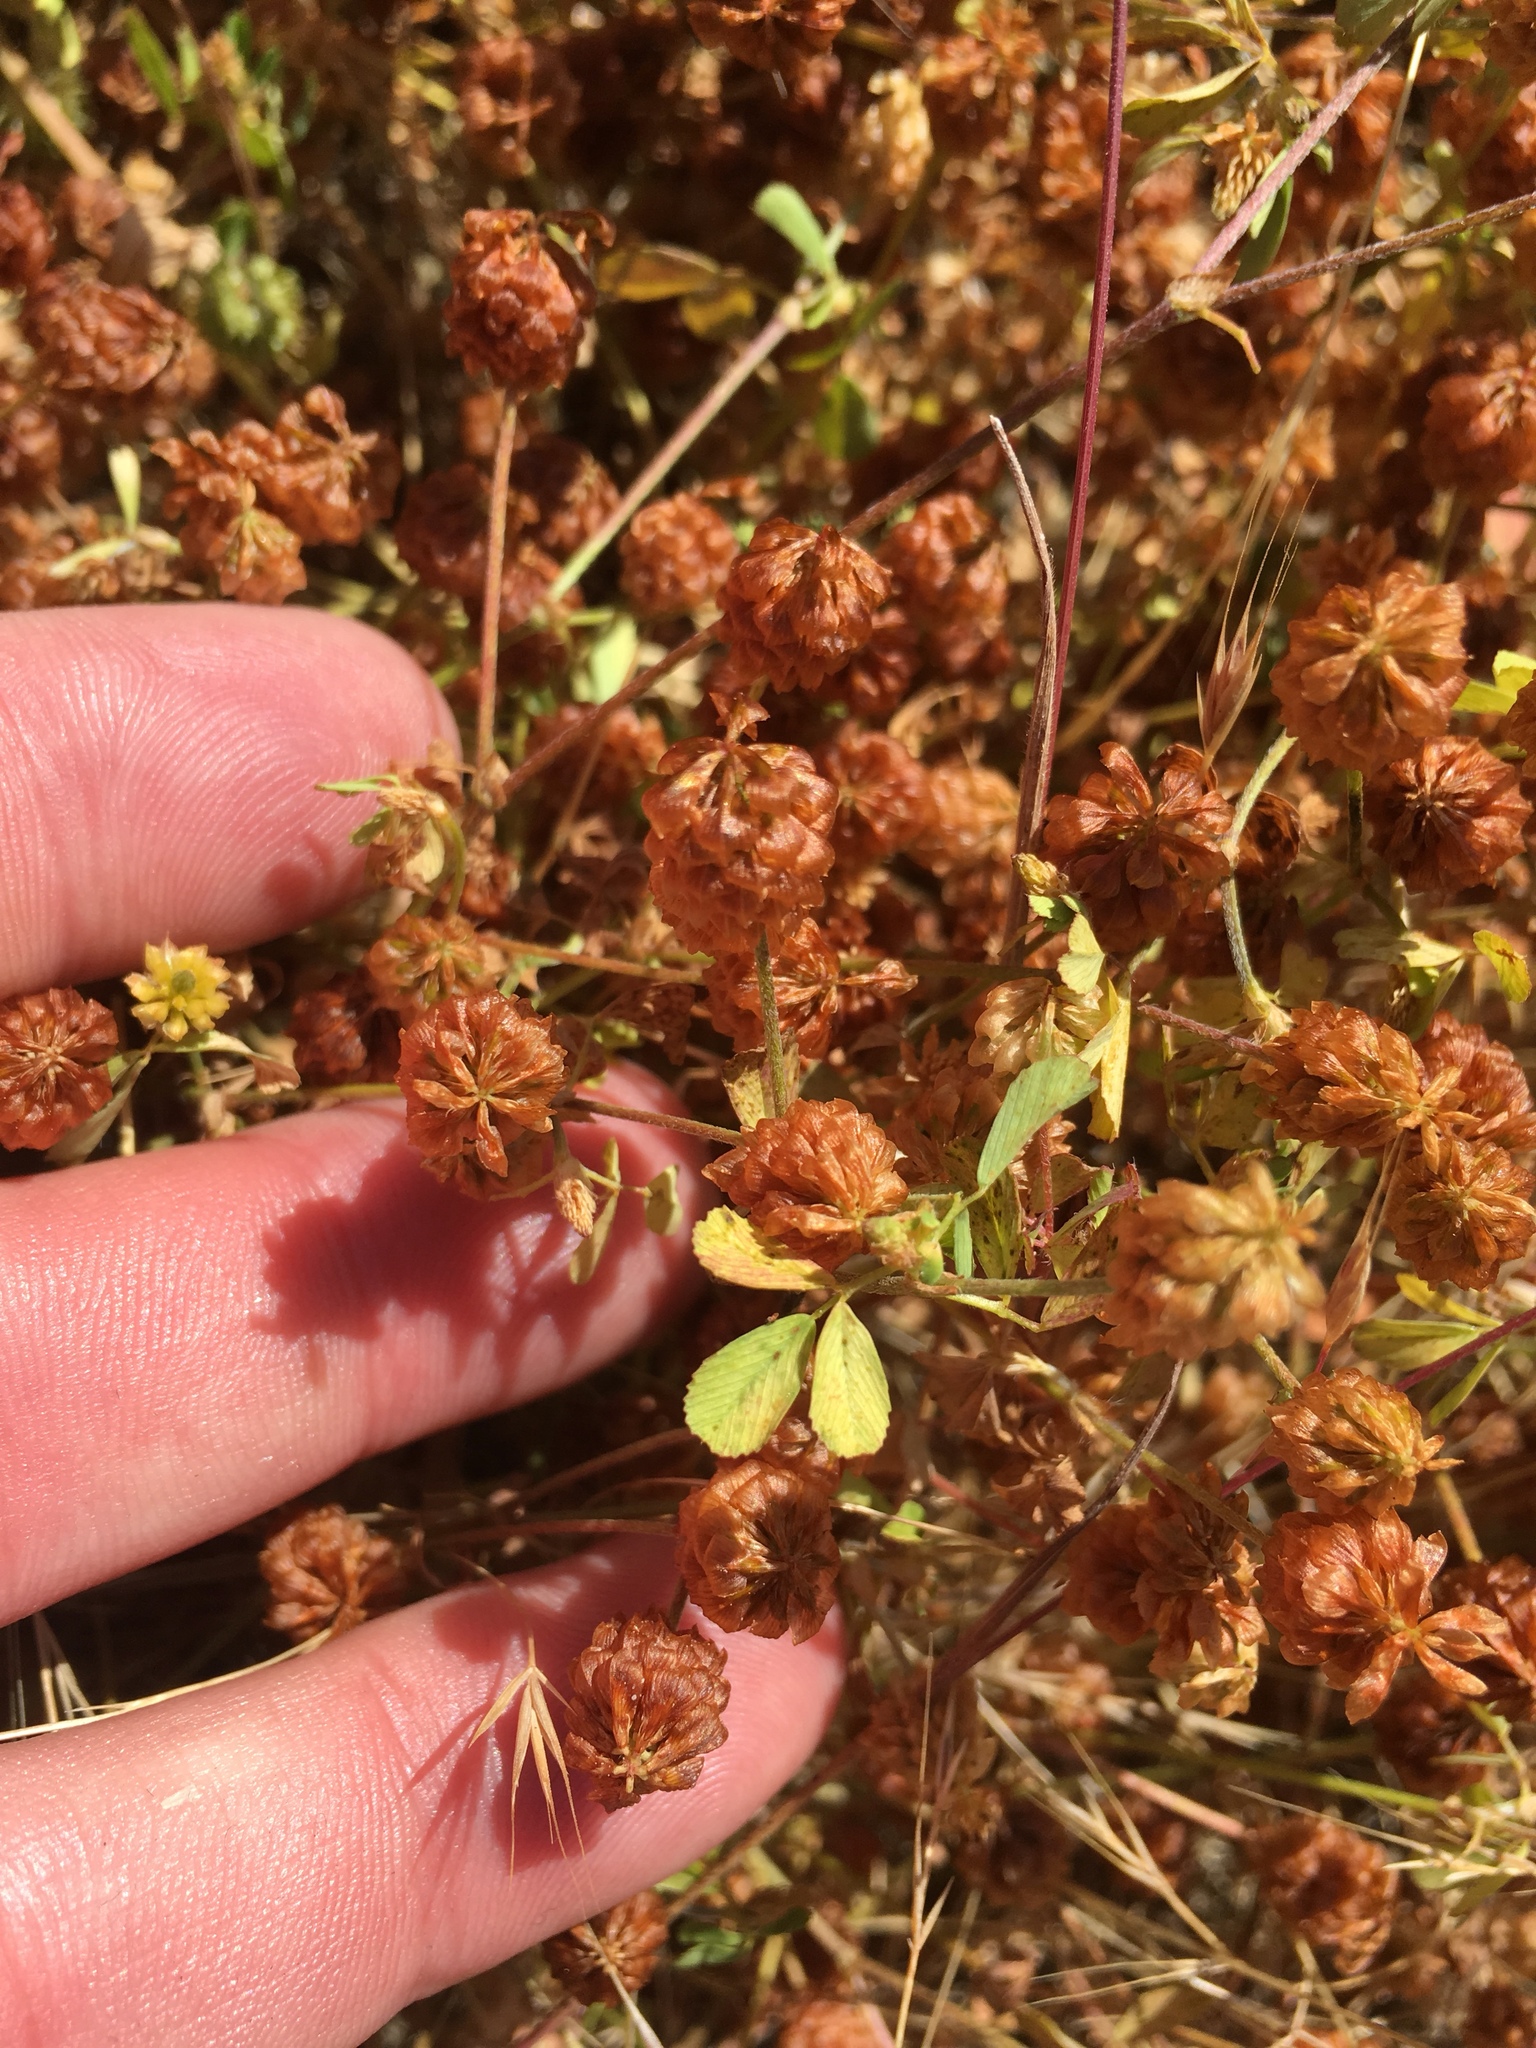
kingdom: Plantae
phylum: Tracheophyta
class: Magnoliopsida
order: Fabales
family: Fabaceae
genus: Trifolium
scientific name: Trifolium campestre
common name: Field clover
